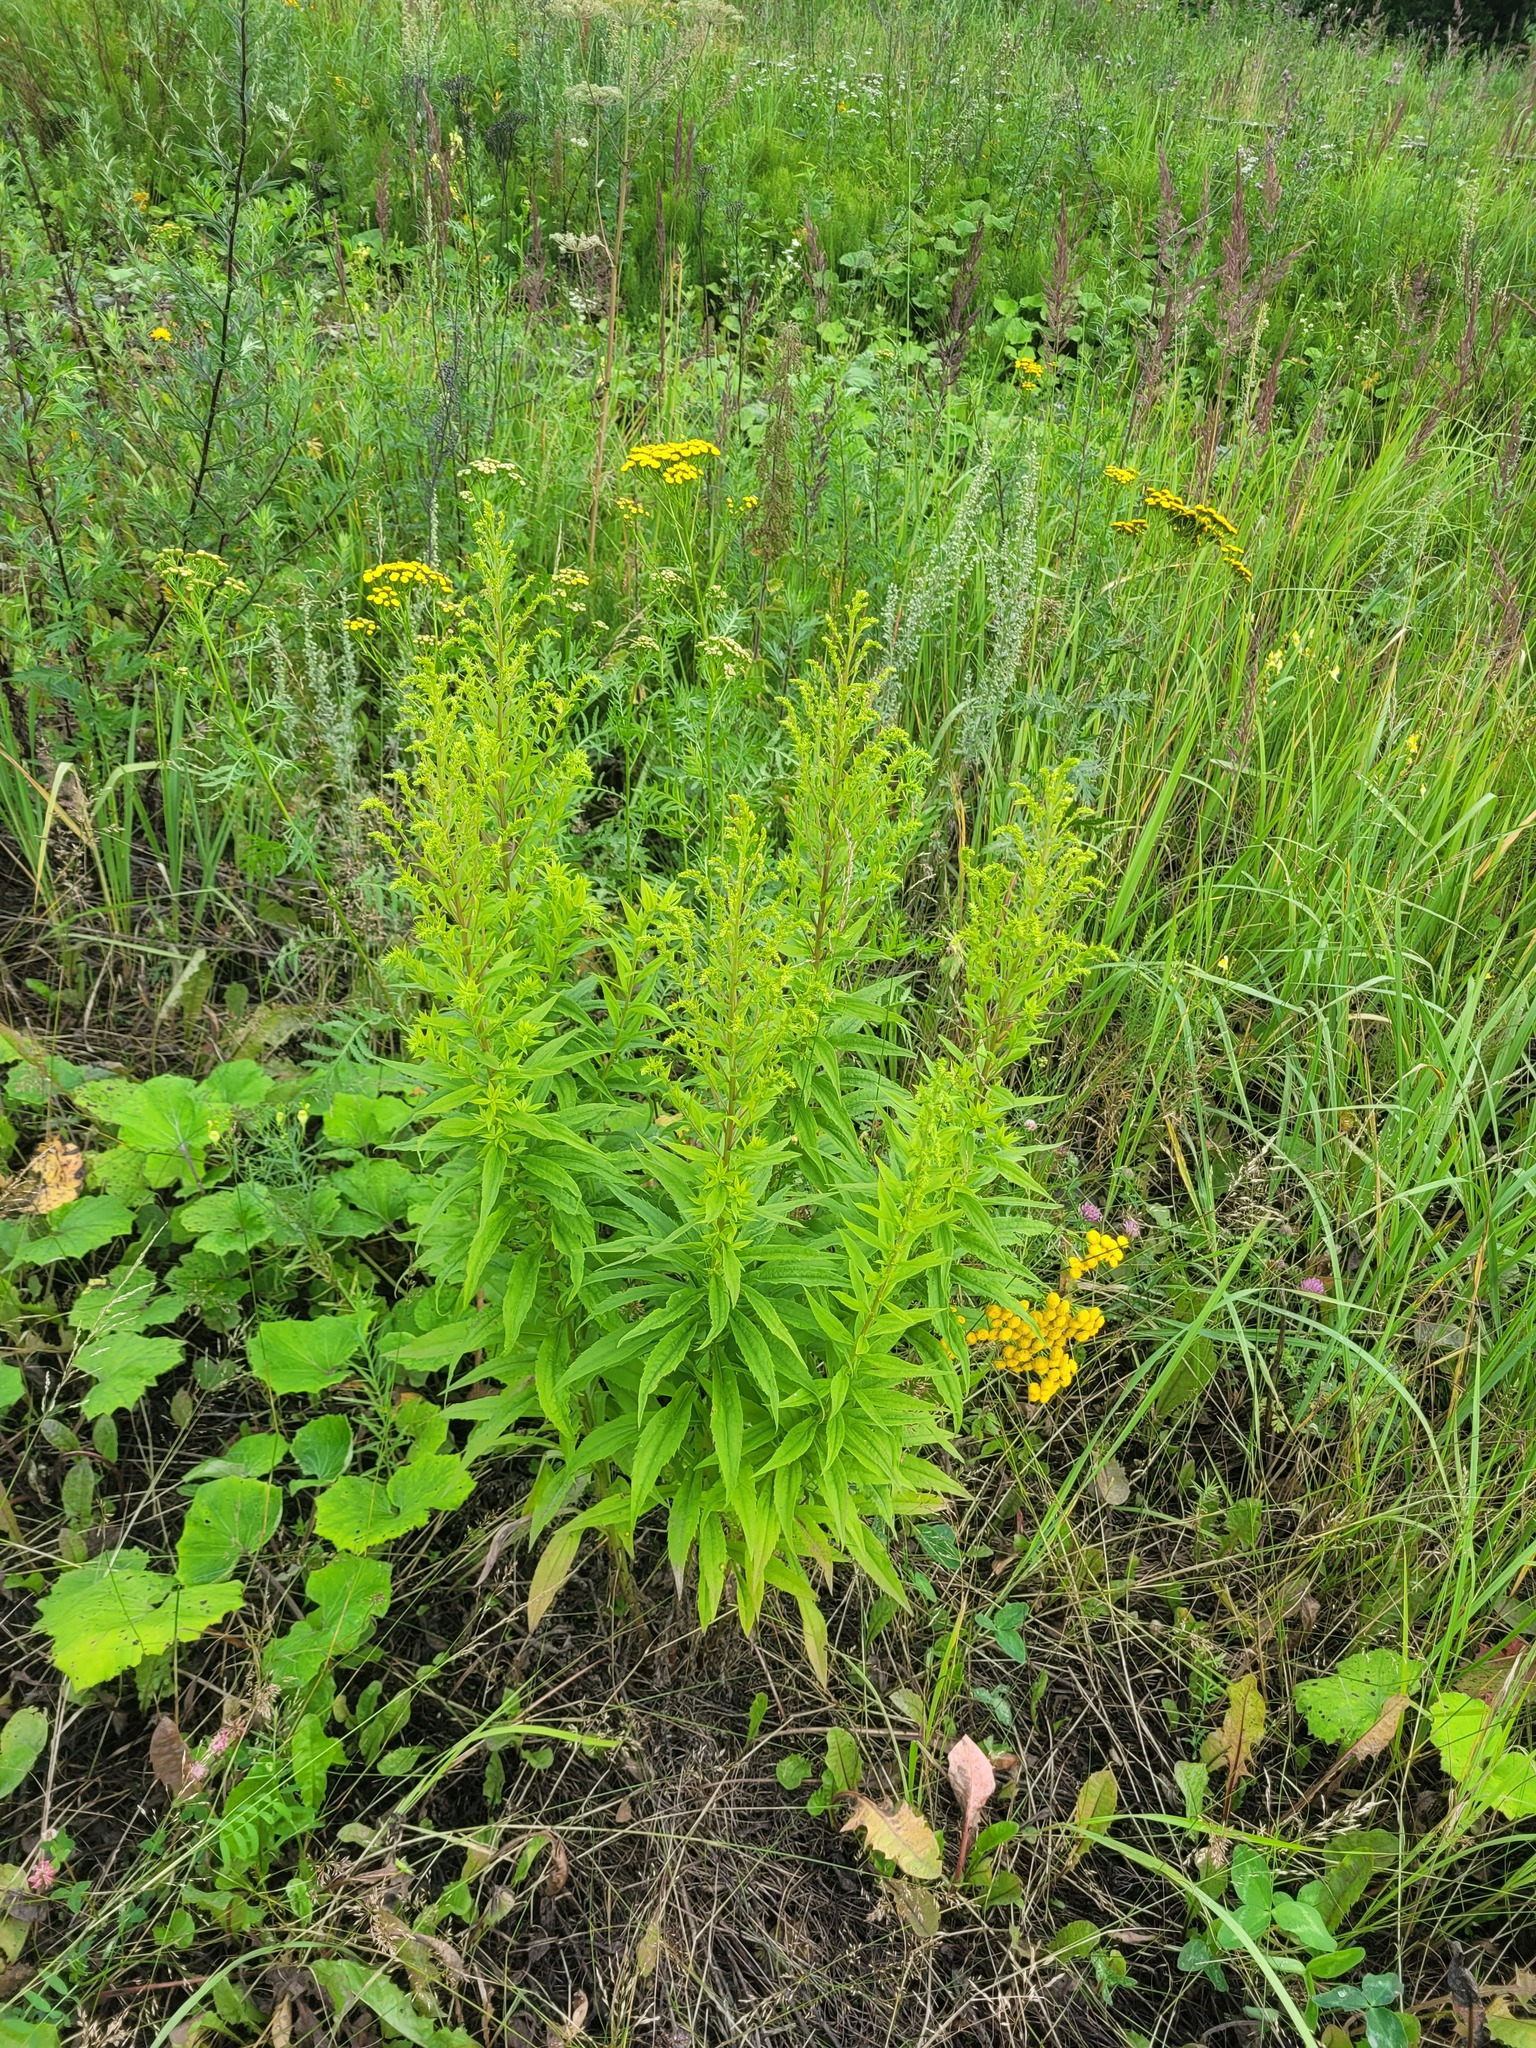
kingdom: Plantae
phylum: Tracheophyta
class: Magnoliopsida
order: Asterales
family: Asteraceae
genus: Solidago
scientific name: Solidago canadensis
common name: Canada goldenrod
